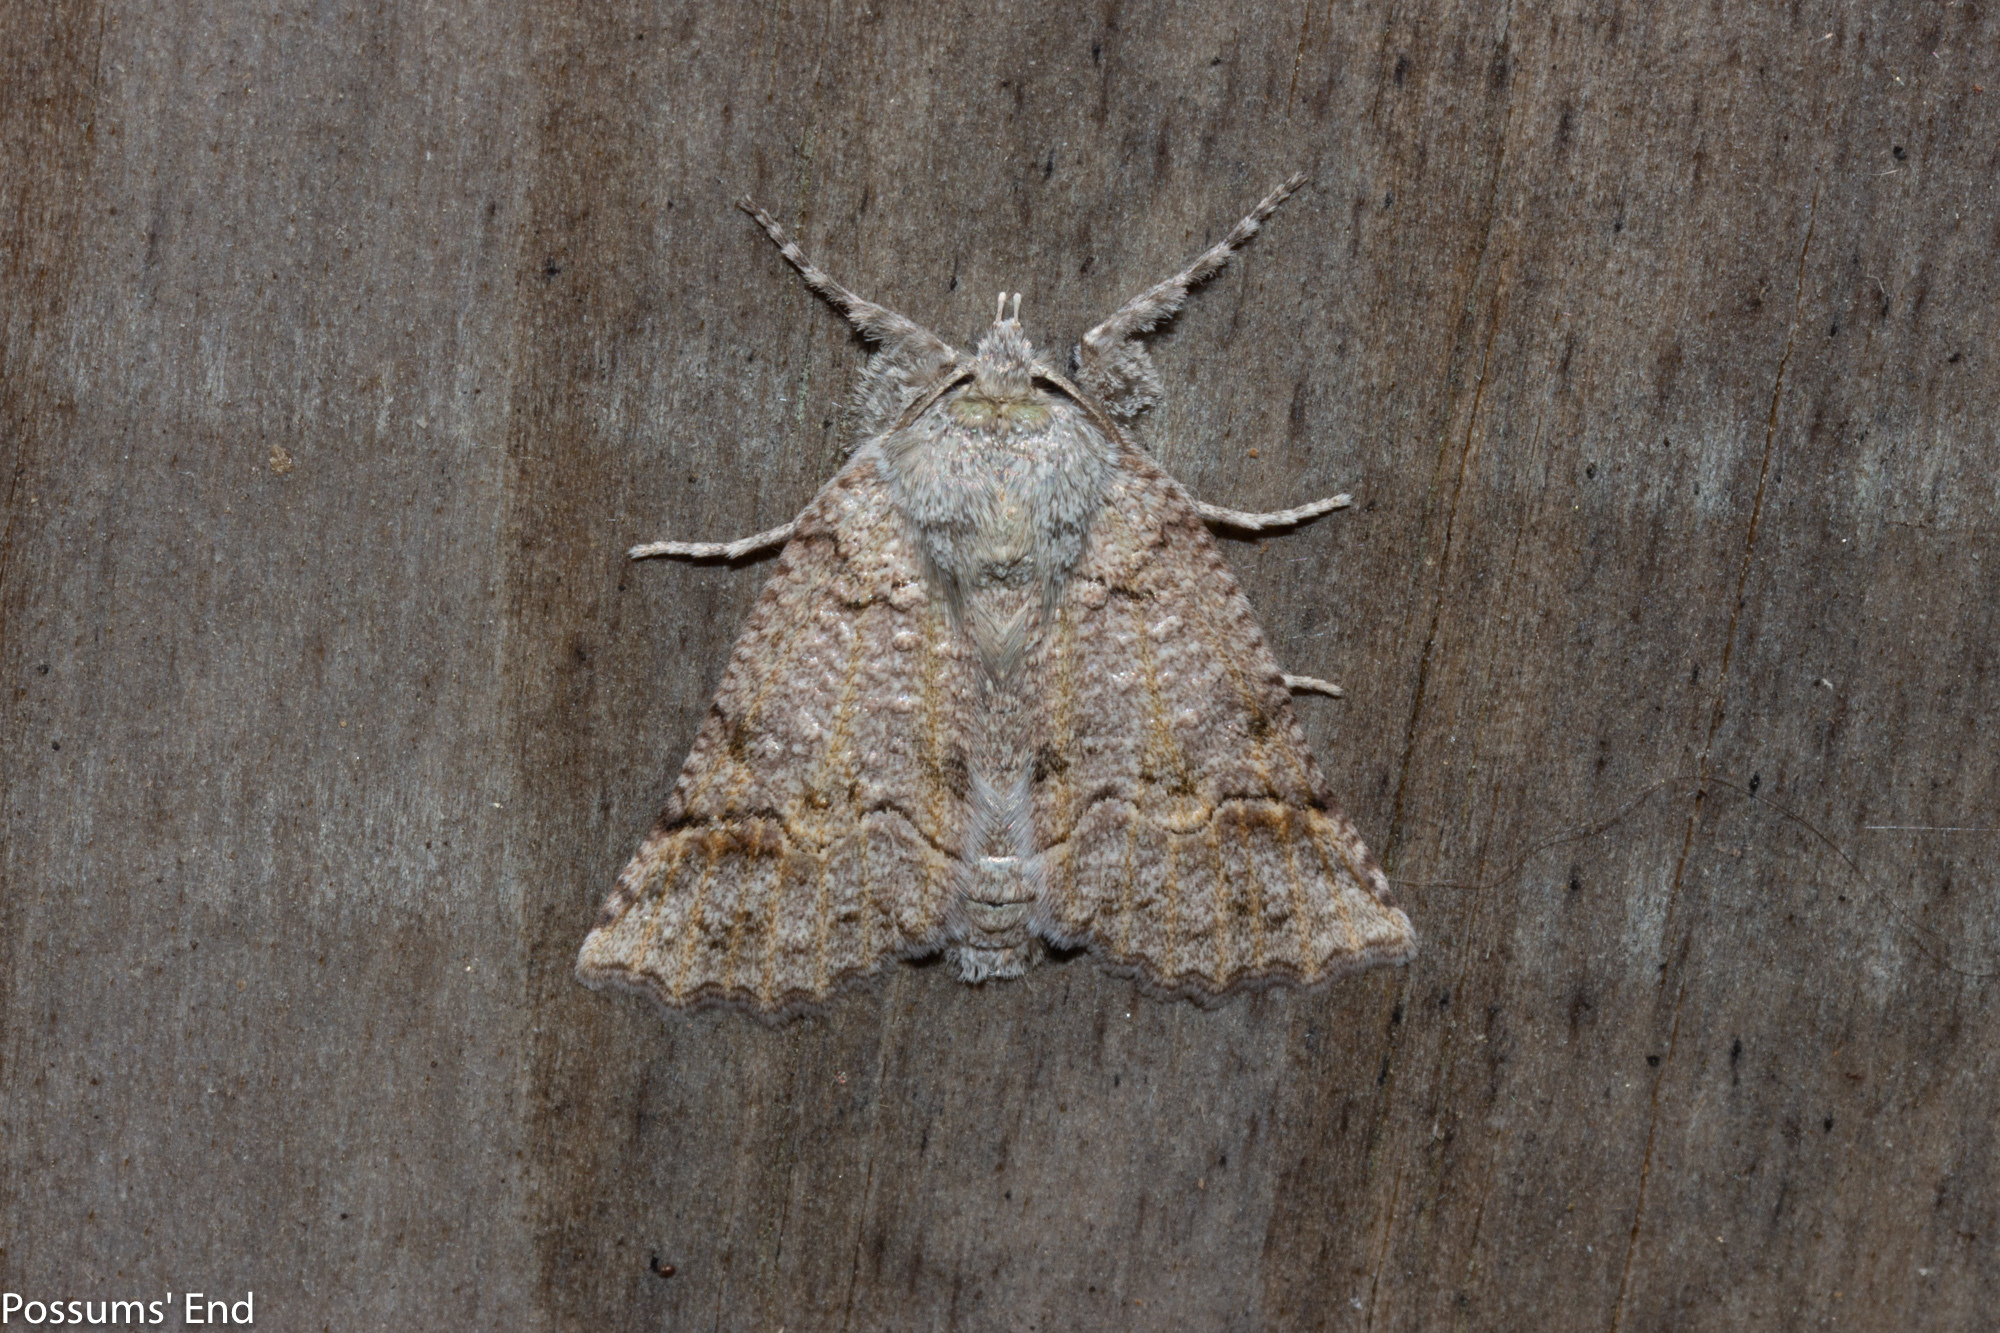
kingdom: Animalia
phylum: Arthropoda
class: Insecta
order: Lepidoptera
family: Geometridae
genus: Declana
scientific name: Declana floccosa
